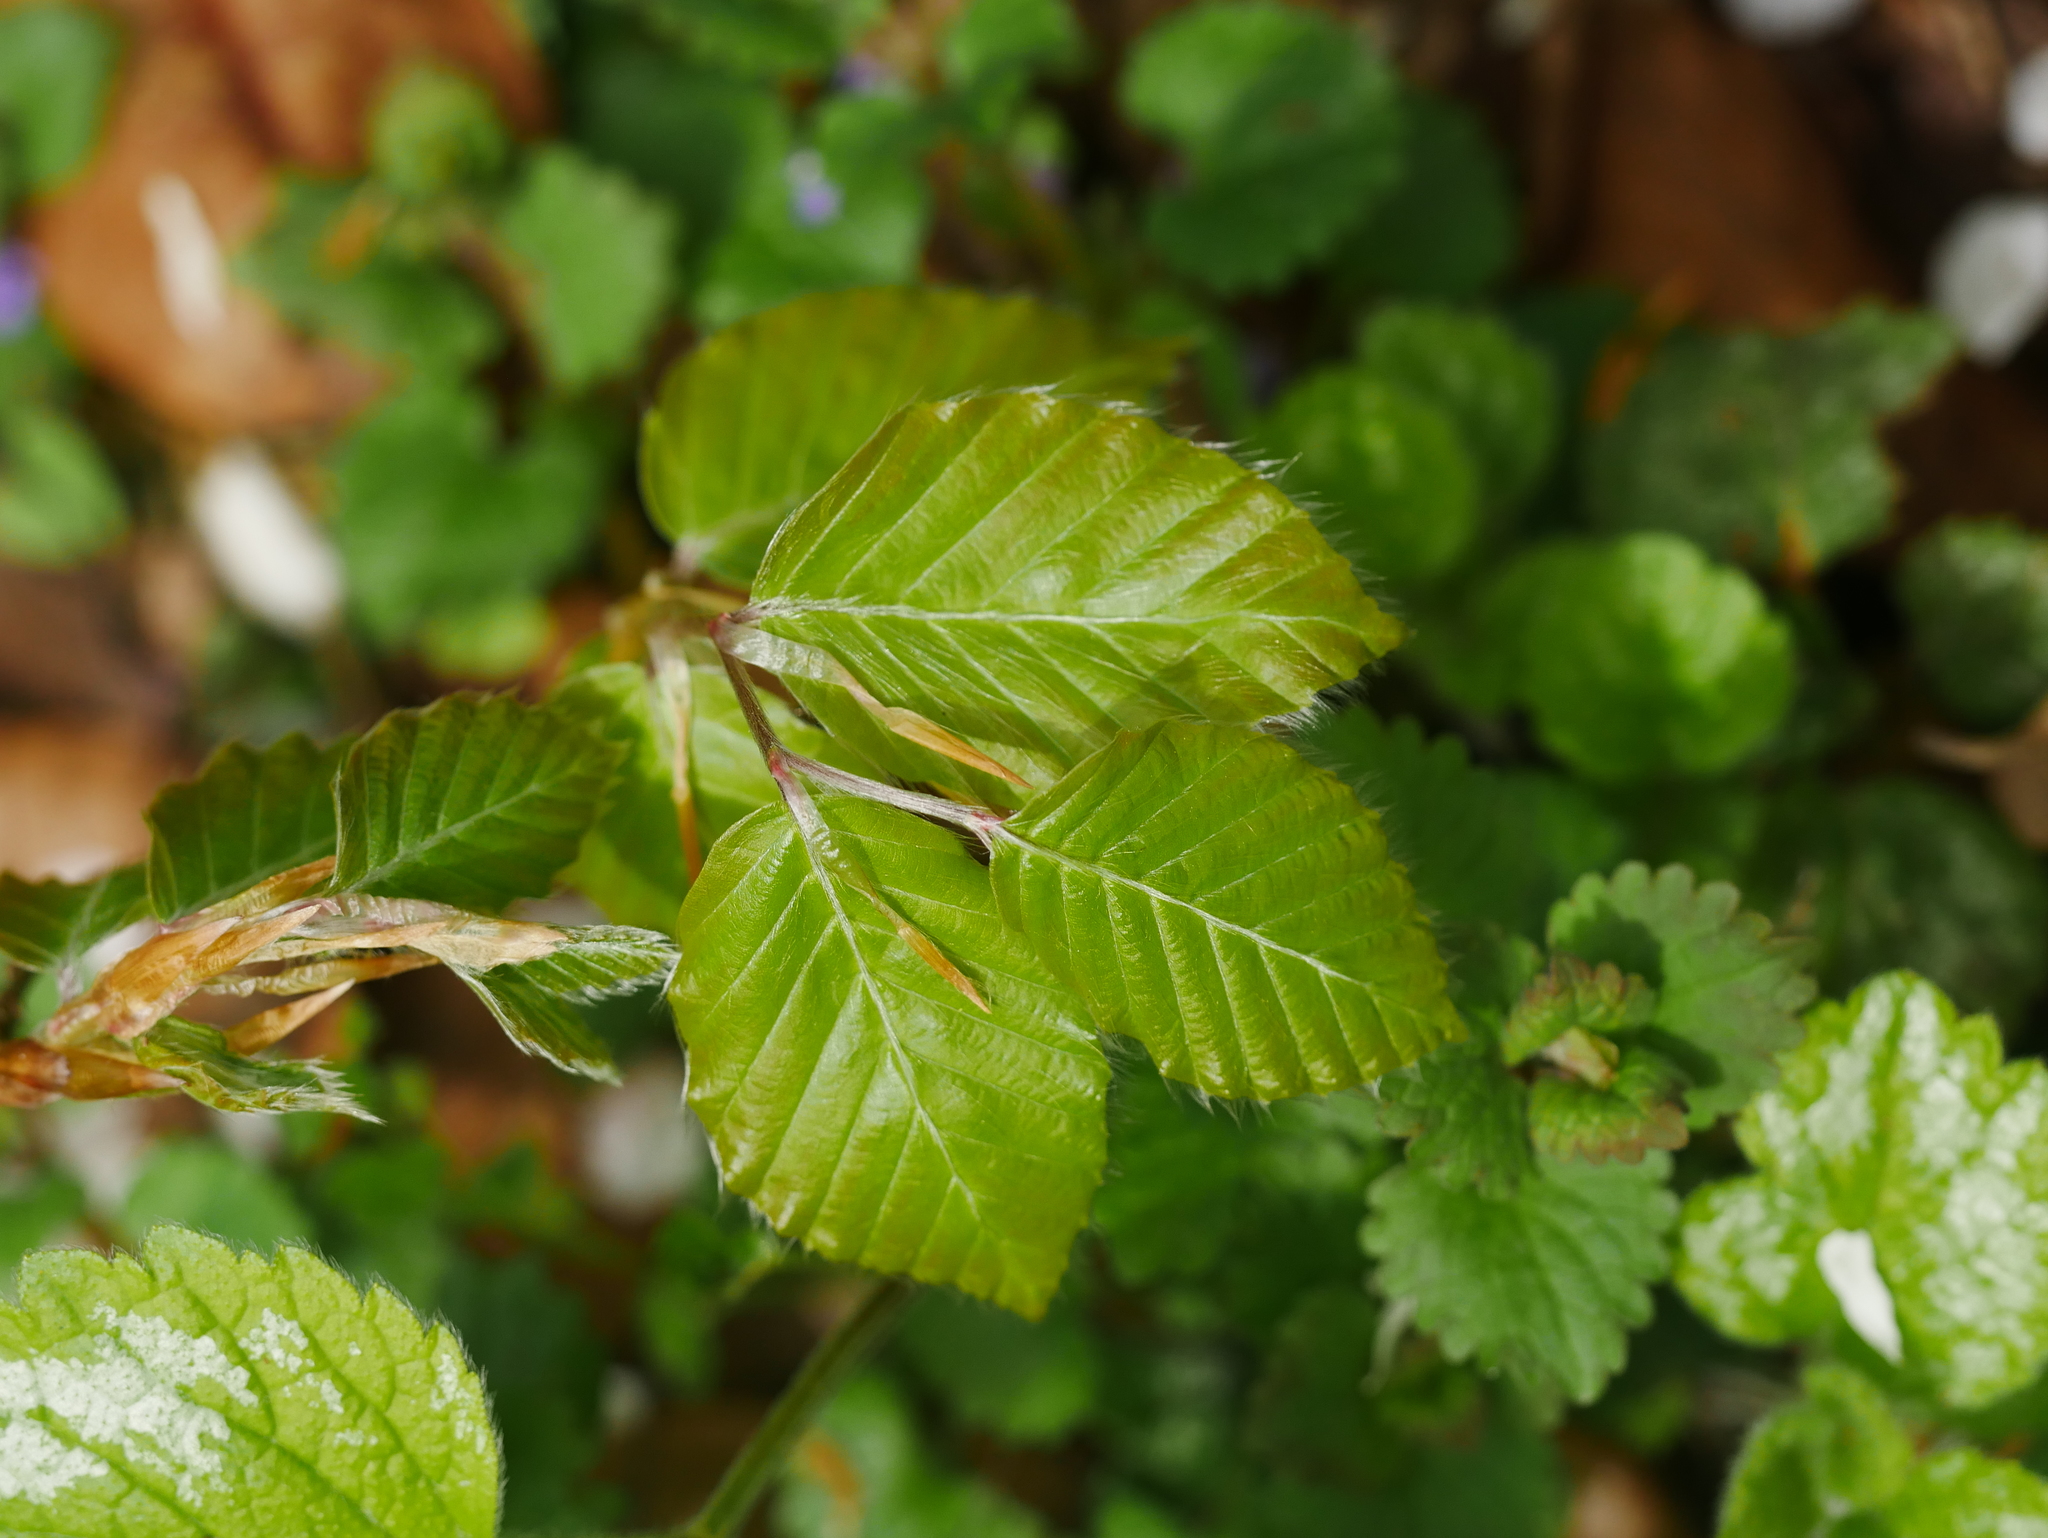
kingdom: Plantae
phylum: Tracheophyta
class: Magnoliopsida
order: Fagales
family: Fagaceae
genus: Fagus
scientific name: Fagus sylvatica
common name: Beech
